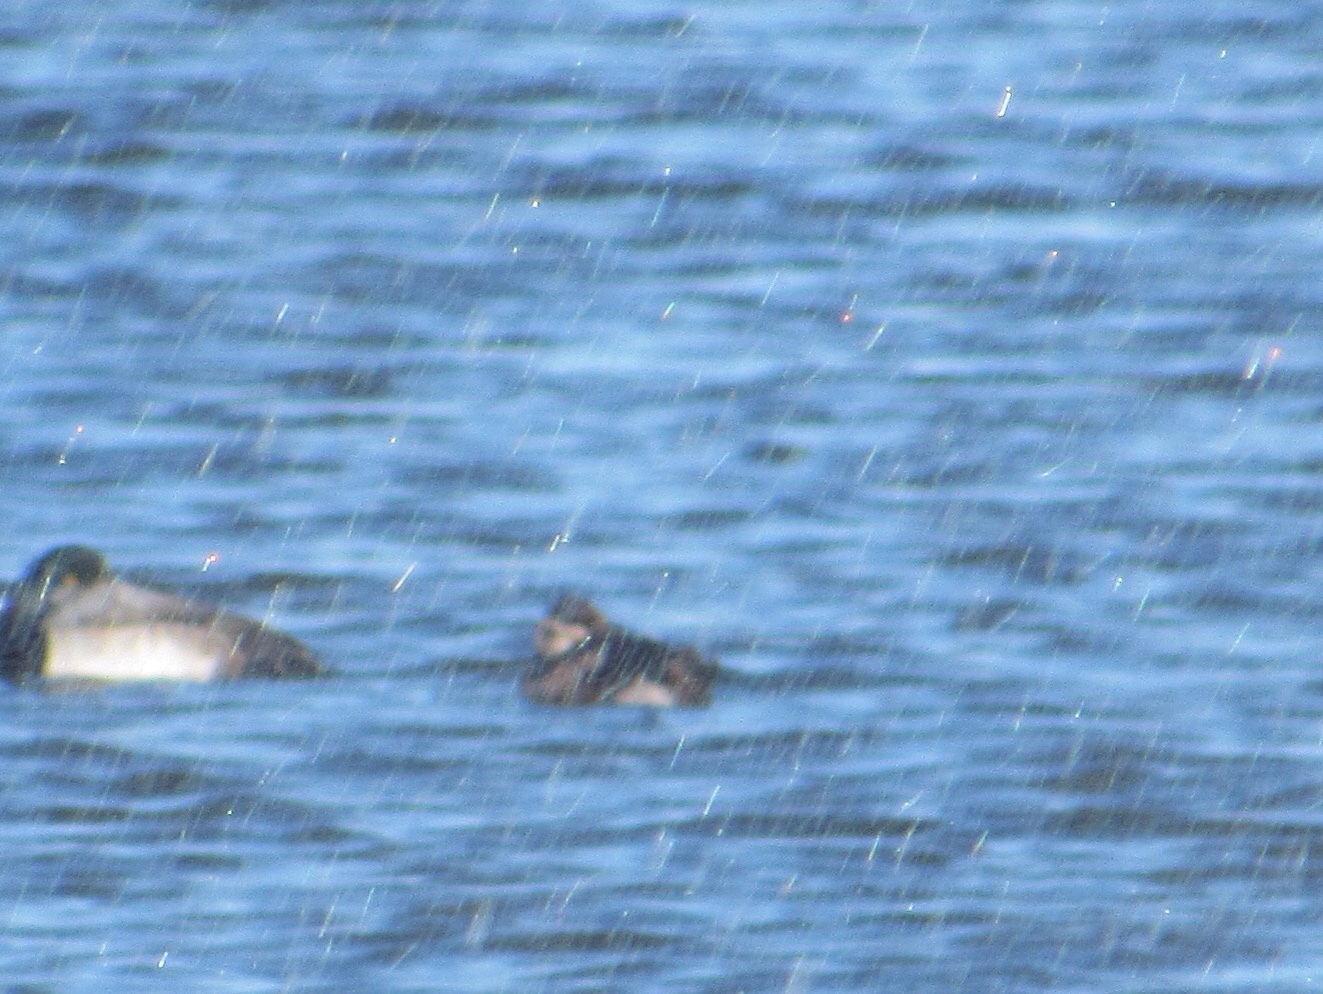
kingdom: Animalia
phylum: Chordata
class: Aves
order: Anseriformes
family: Anatidae
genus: Oxyura
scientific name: Oxyura jamaicensis
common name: Ruddy duck
